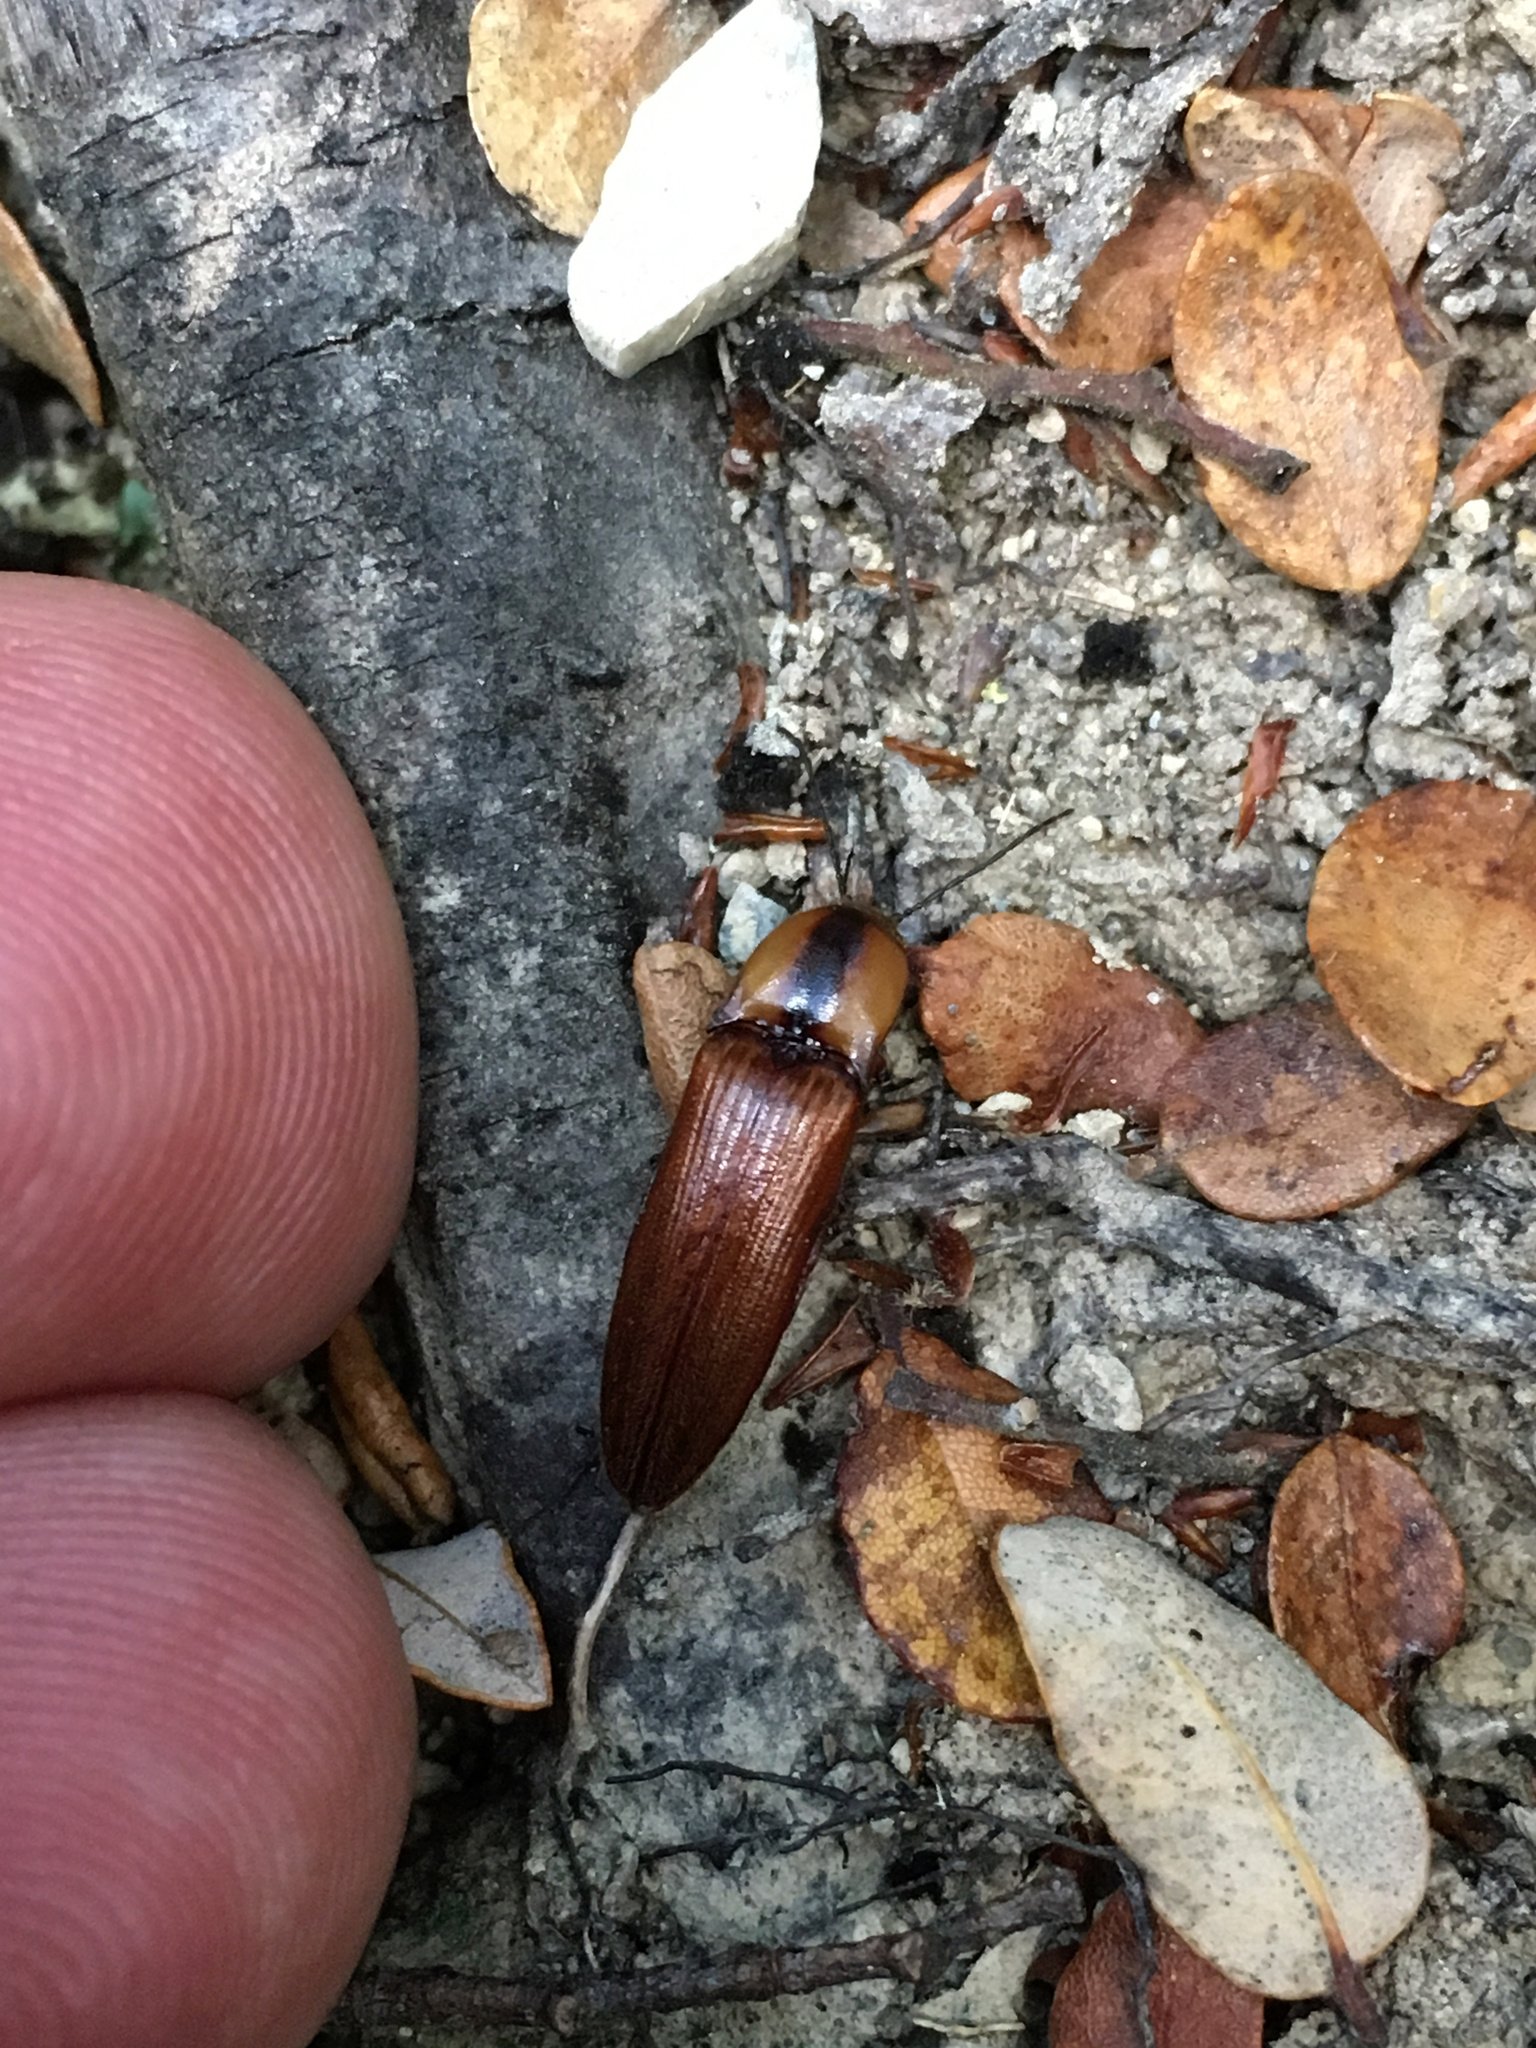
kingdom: Animalia
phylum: Arthropoda
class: Insecta
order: Coleoptera
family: Elateridae
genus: Sphaenelater
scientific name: Sphaenelater
